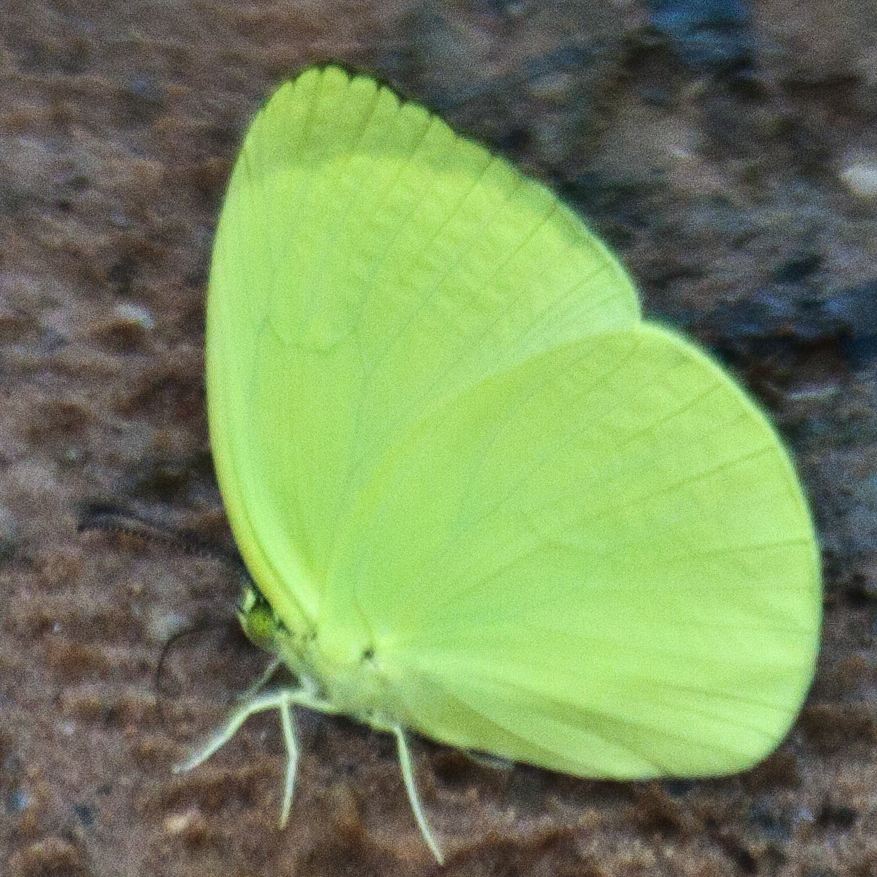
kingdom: Animalia
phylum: Arthropoda
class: Insecta
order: Lepidoptera
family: Pieridae
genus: Gandaca
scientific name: Gandaca harina
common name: Tree yellow
